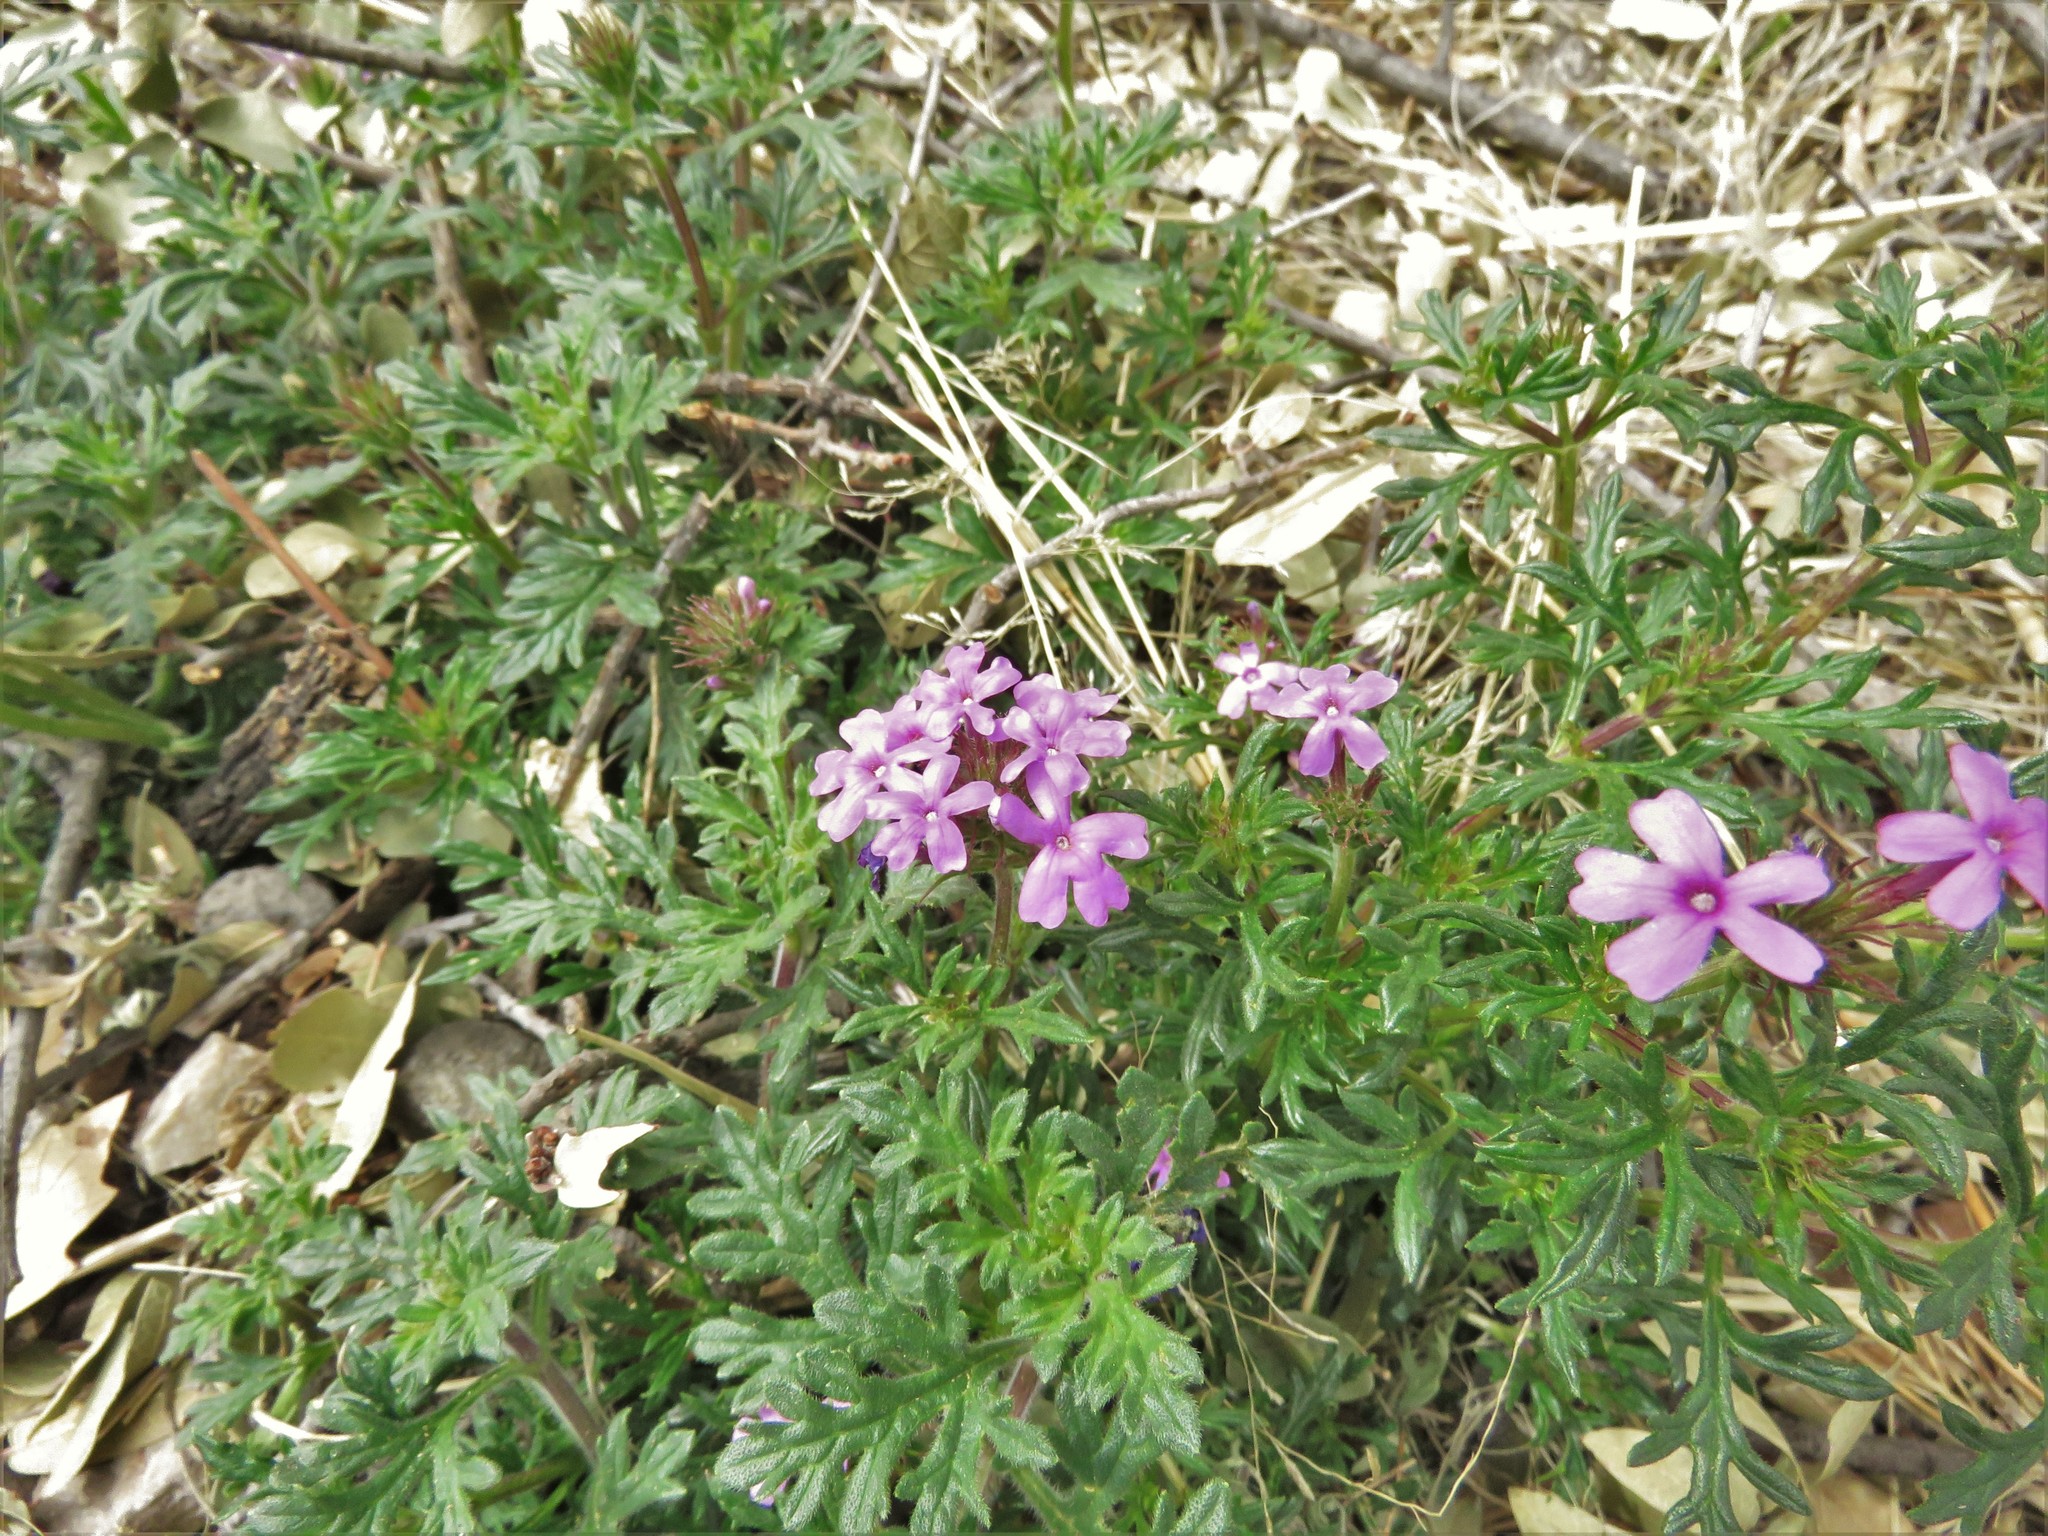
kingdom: Plantae
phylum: Tracheophyta
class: Magnoliopsida
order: Lamiales
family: Verbenaceae
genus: Verbena
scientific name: Verbena chiricahensis
